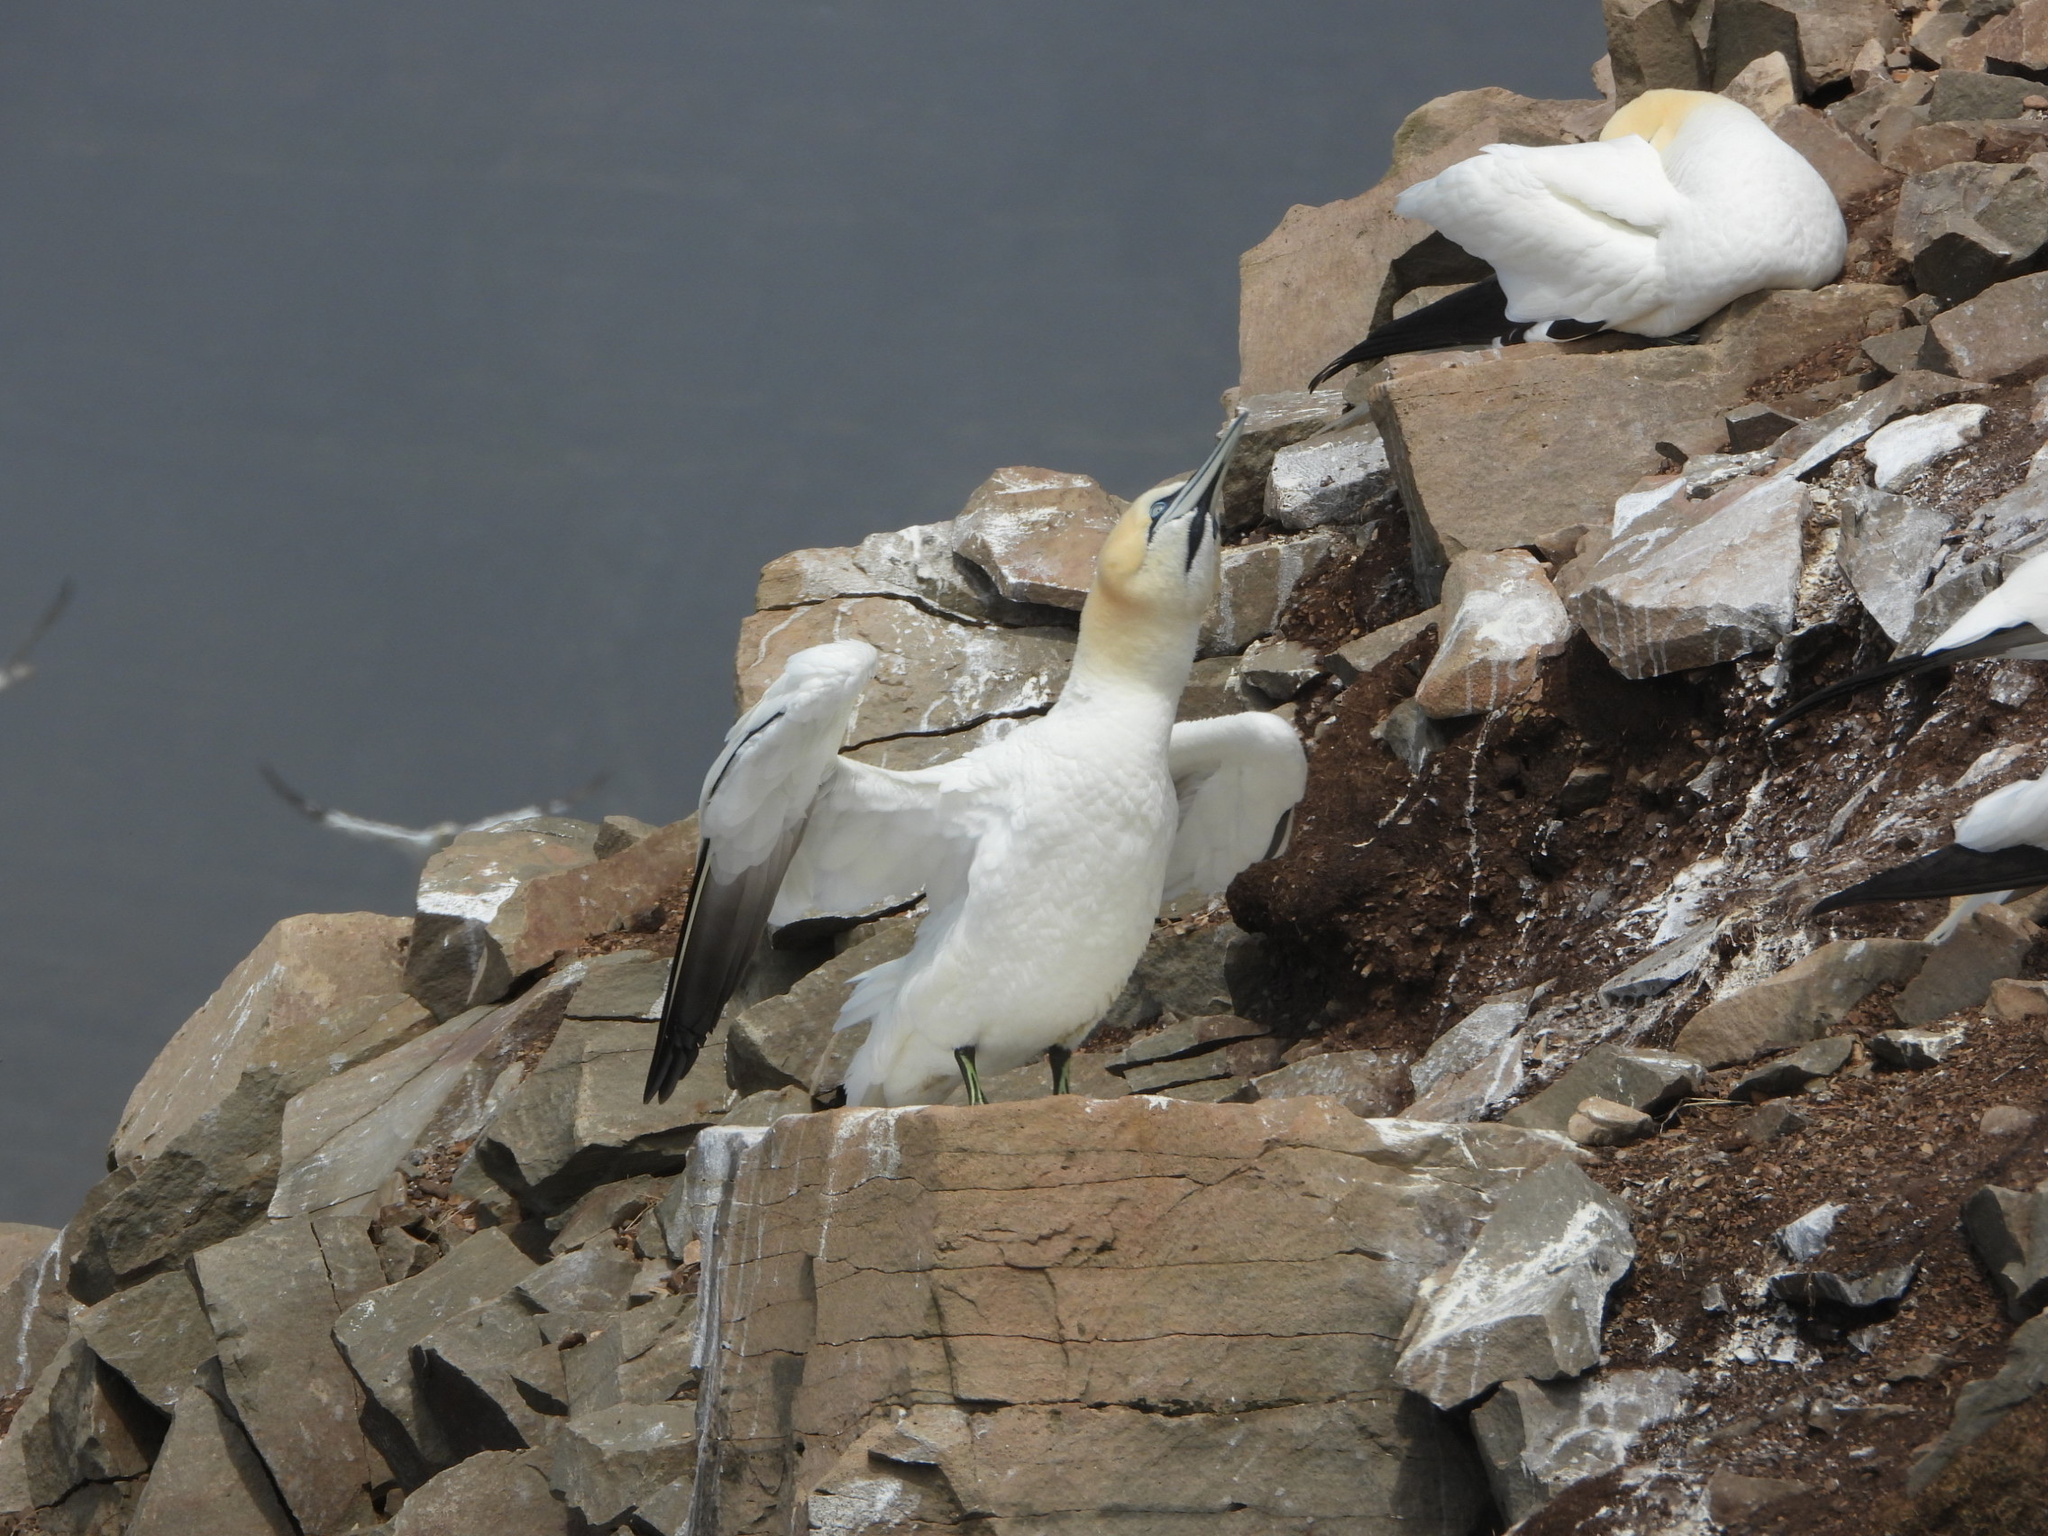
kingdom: Animalia
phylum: Chordata
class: Aves
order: Suliformes
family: Sulidae
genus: Morus
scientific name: Morus bassanus
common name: Northern gannet
